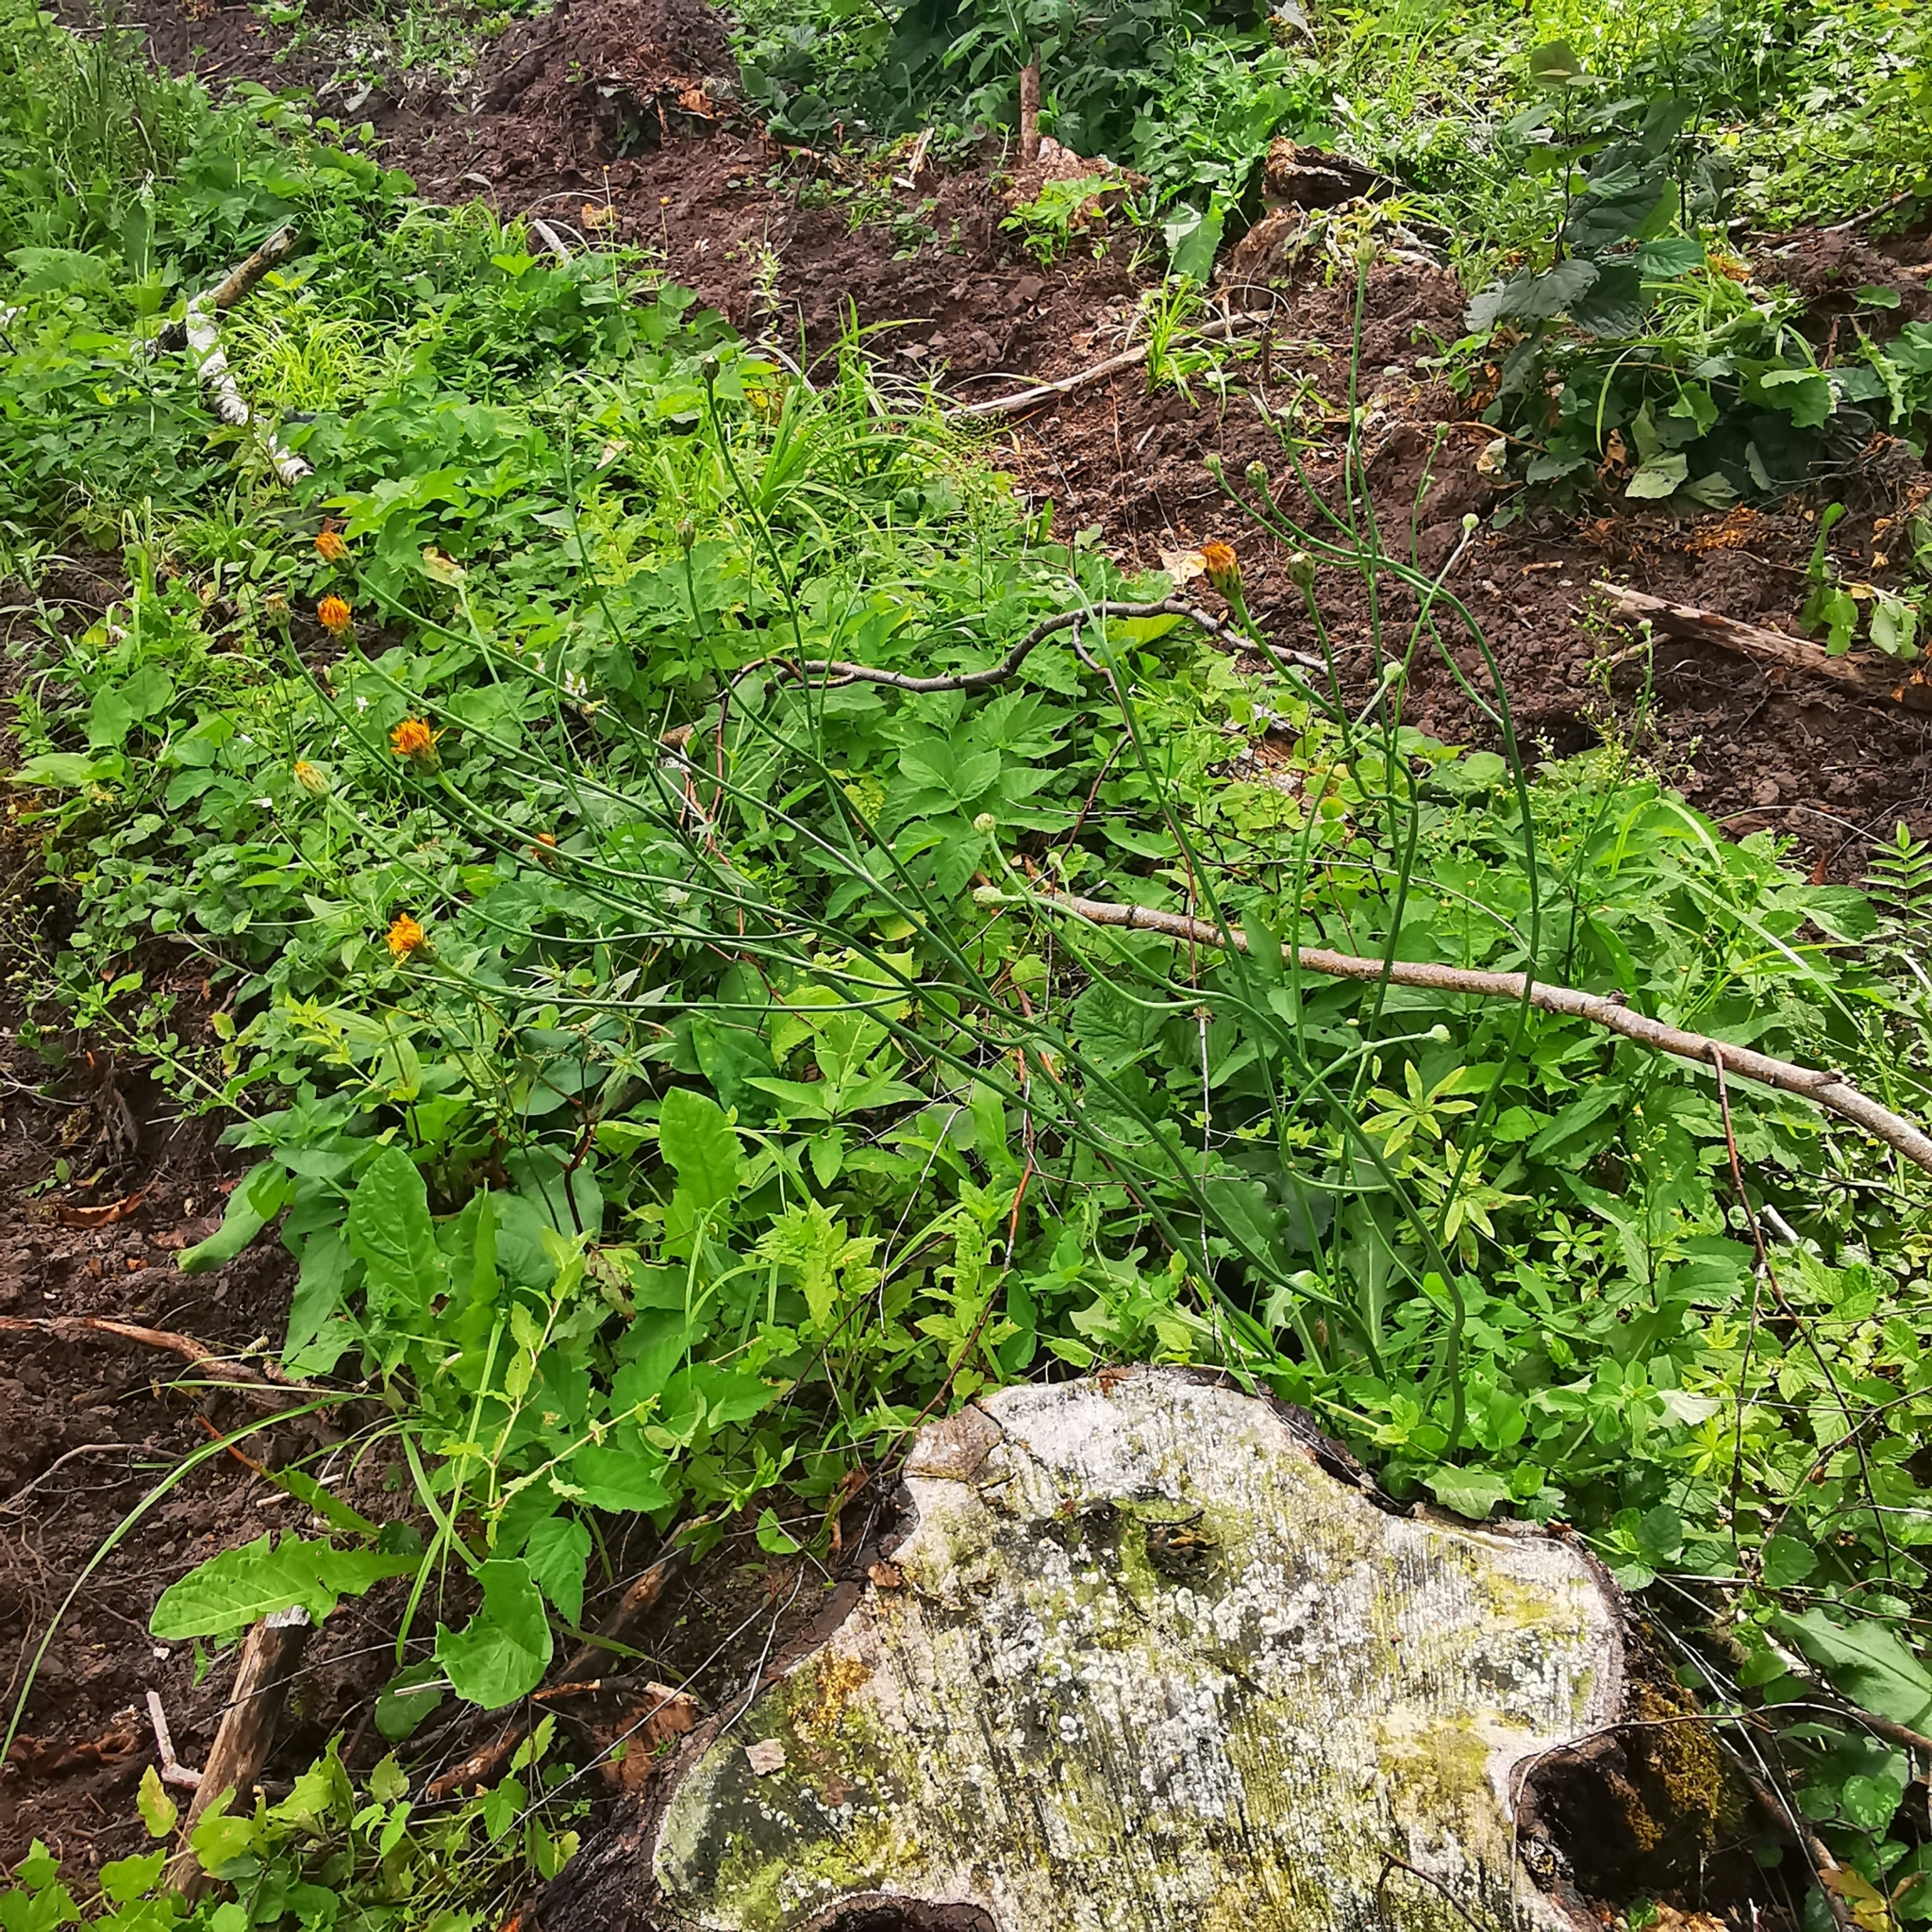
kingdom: Plantae
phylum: Tracheophyta
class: Magnoliopsida
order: Asterales
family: Asteraceae
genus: Hypochaeris
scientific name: Hypochaeris radicata
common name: Flatweed
